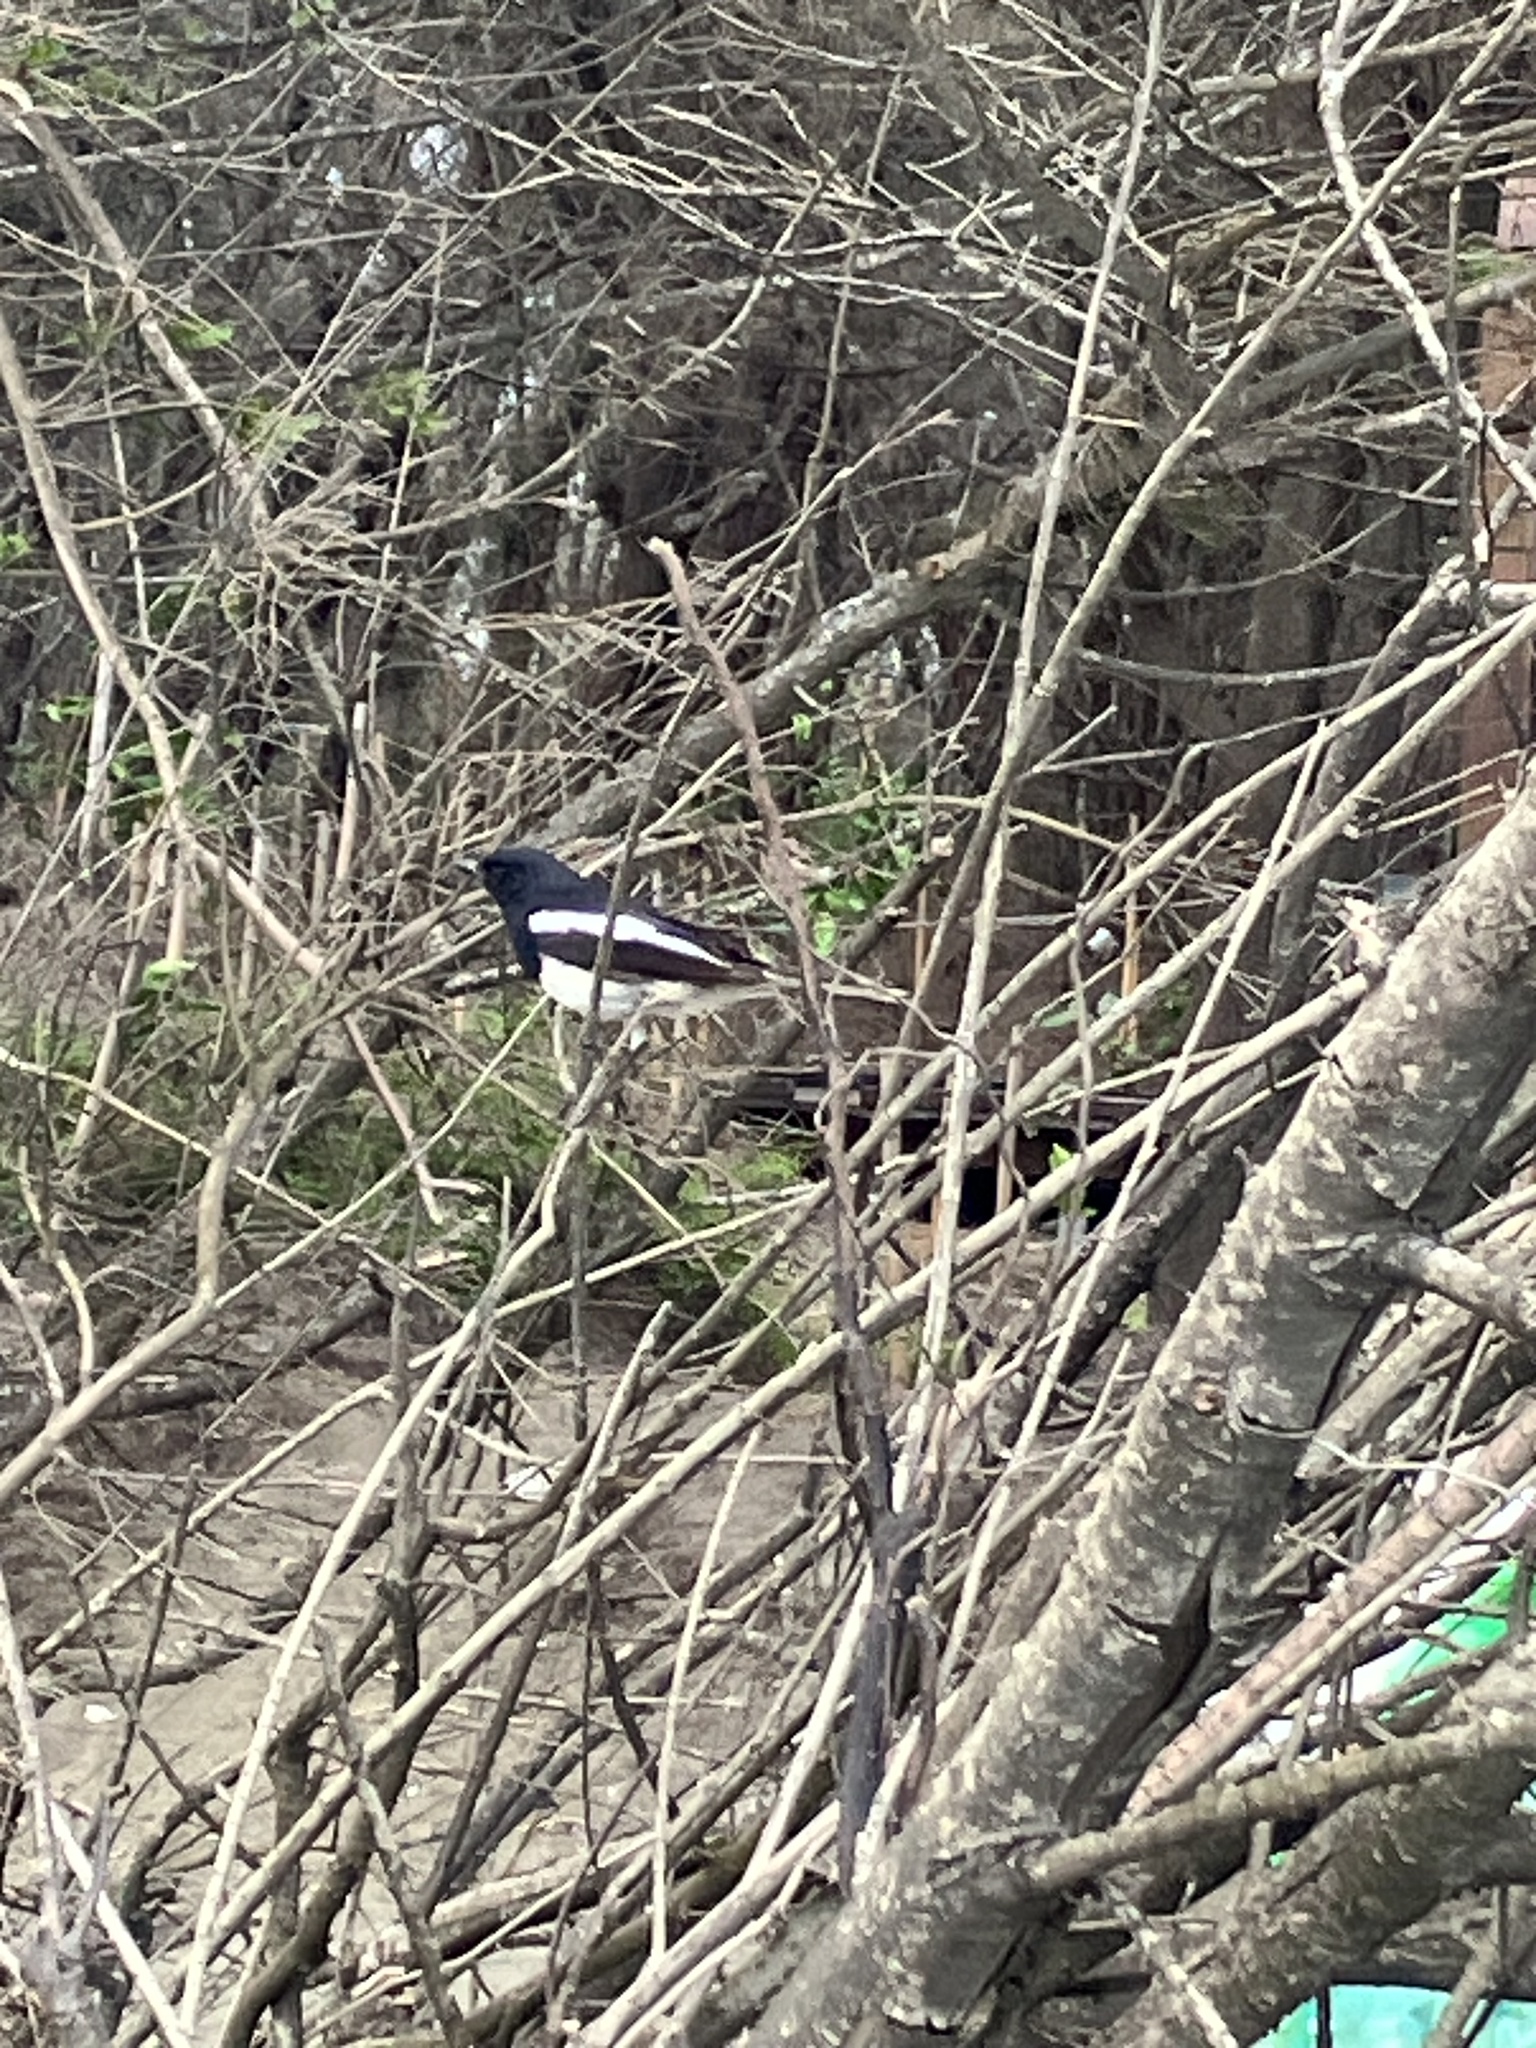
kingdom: Animalia
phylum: Chordata
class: Aves
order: Passeriformes
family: Muscicapidae
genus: Copsychus
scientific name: Copsychus saularis
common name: Oriental magpie-robin
